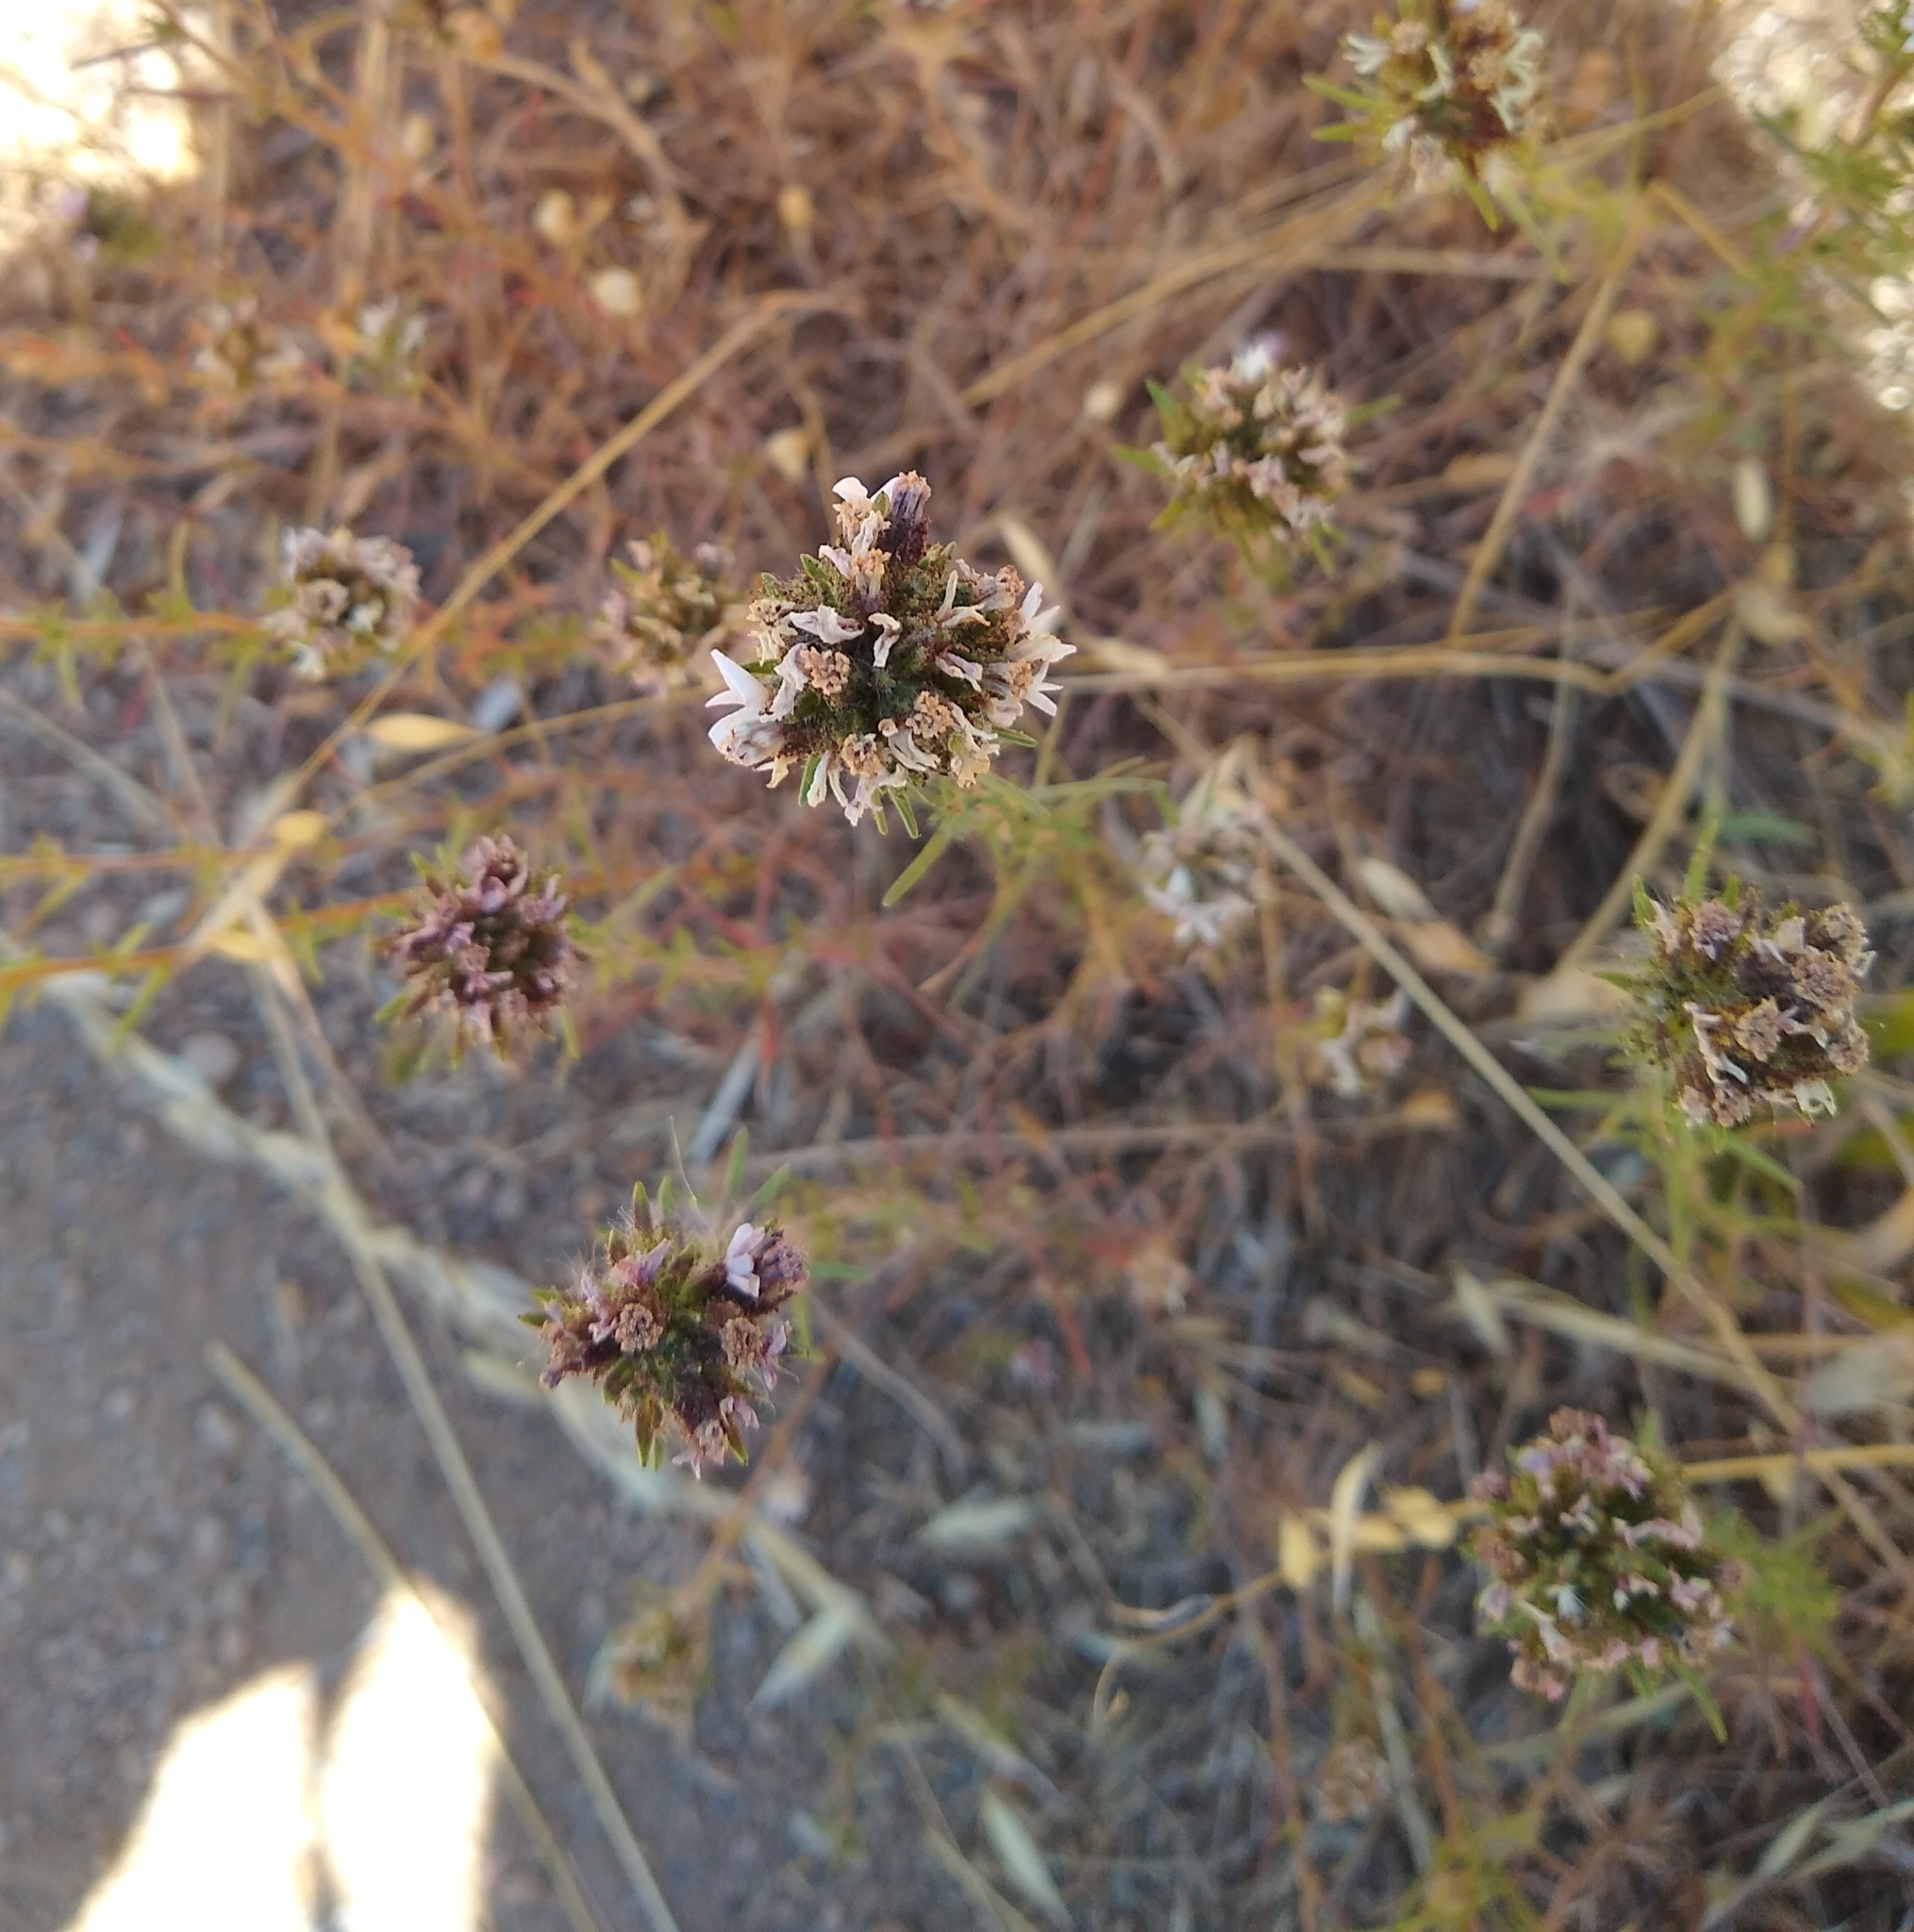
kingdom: Plantae
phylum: Tracheophyta
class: Magnoliopsida
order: Asterales
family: Asteraceae
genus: Calycadenia
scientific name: Calycadenia multiglandulosa
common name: Sticky calycadenia
